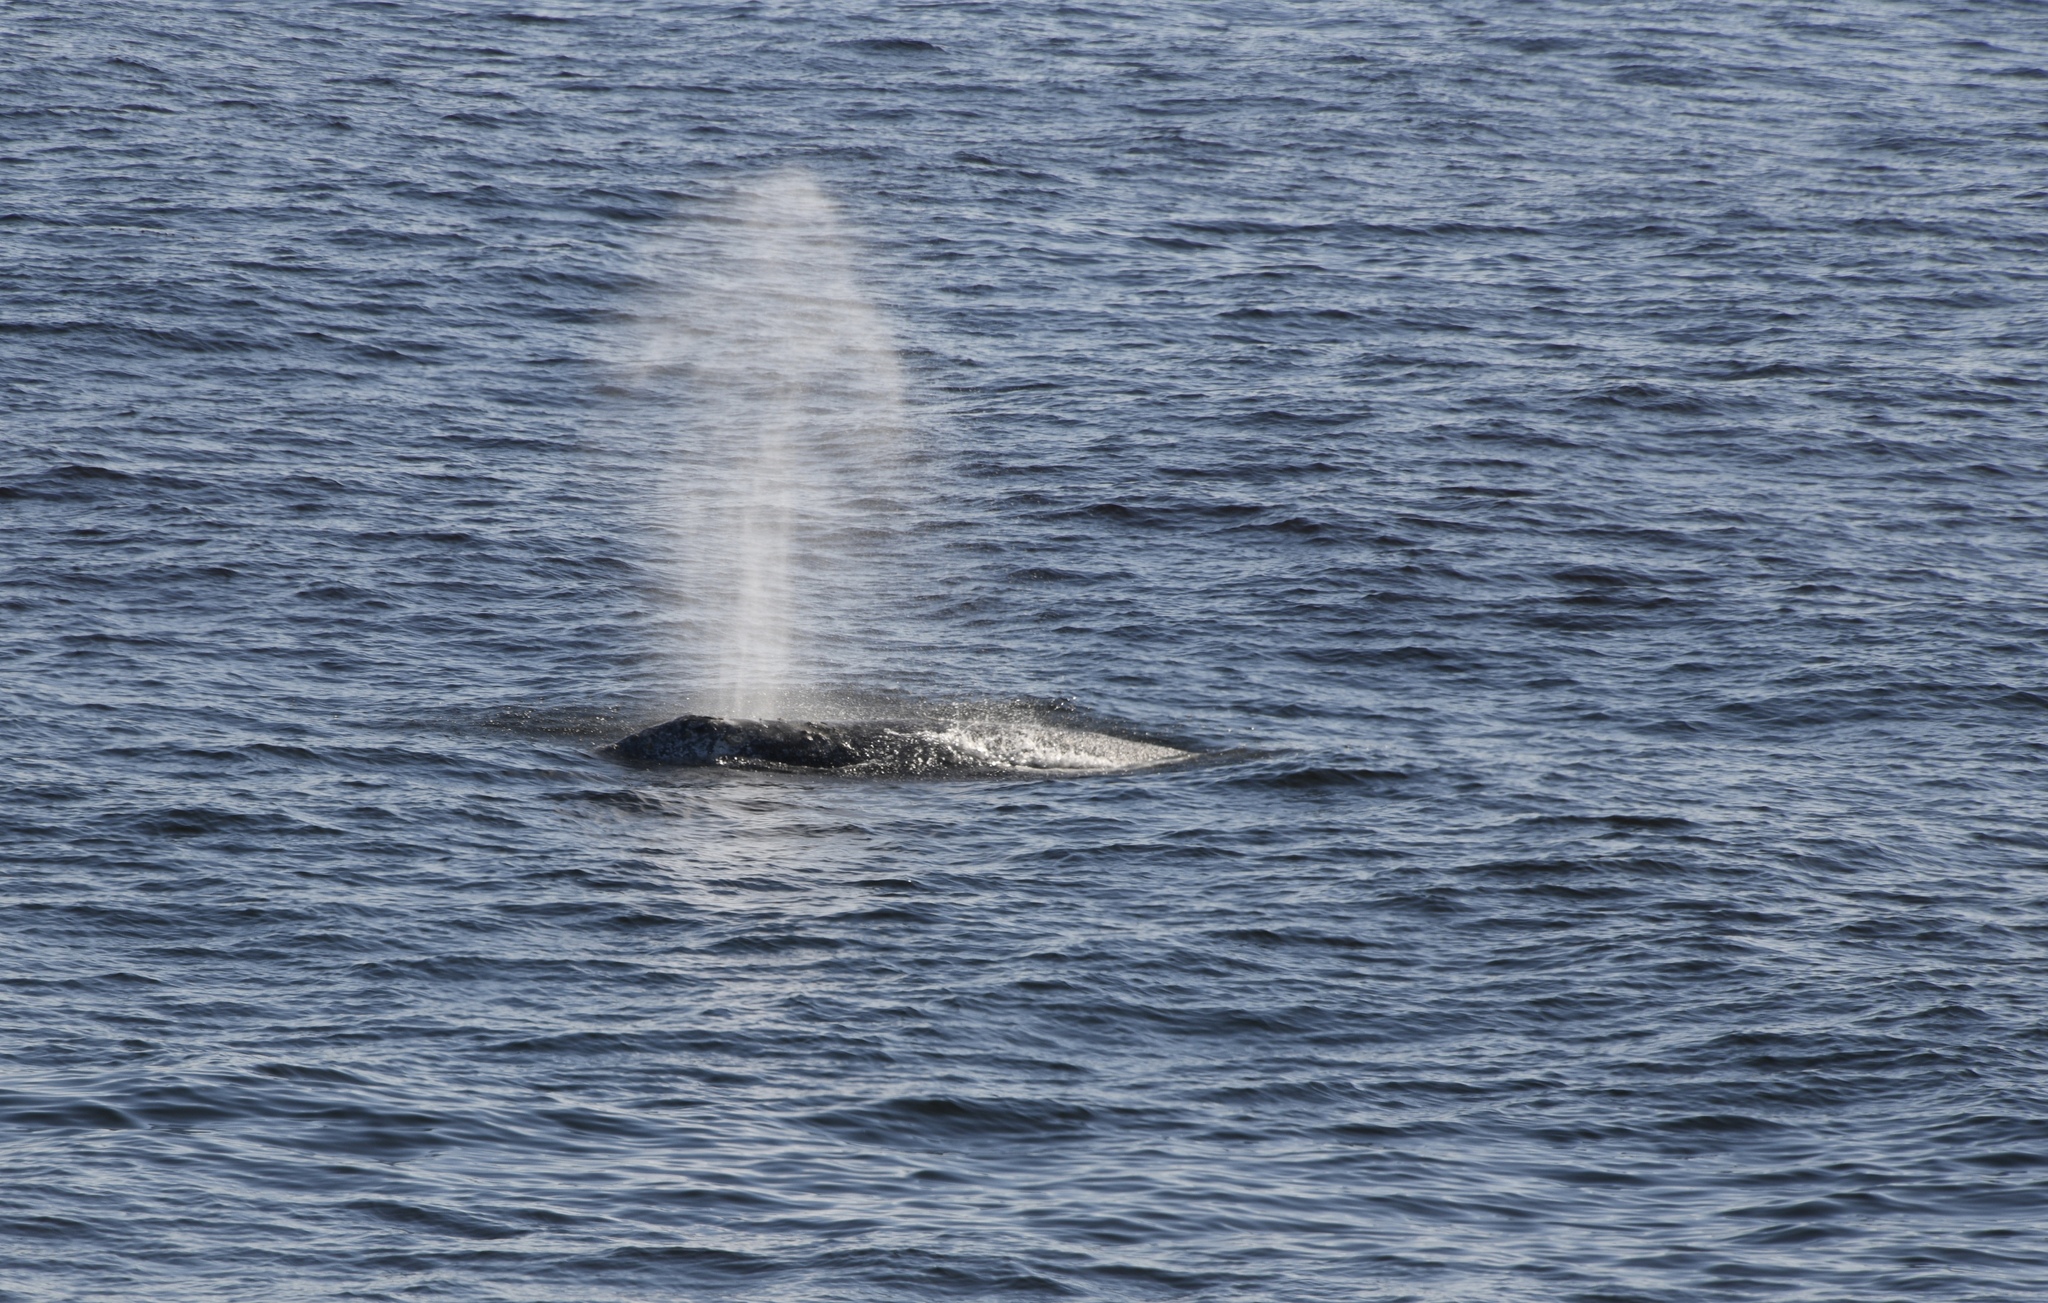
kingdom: Animalia
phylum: Chordata
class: Mammalia
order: Cetacea
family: Eschrichtiidae
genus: Eschrichtius
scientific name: Eschrichtius robustus
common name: Gray whale
